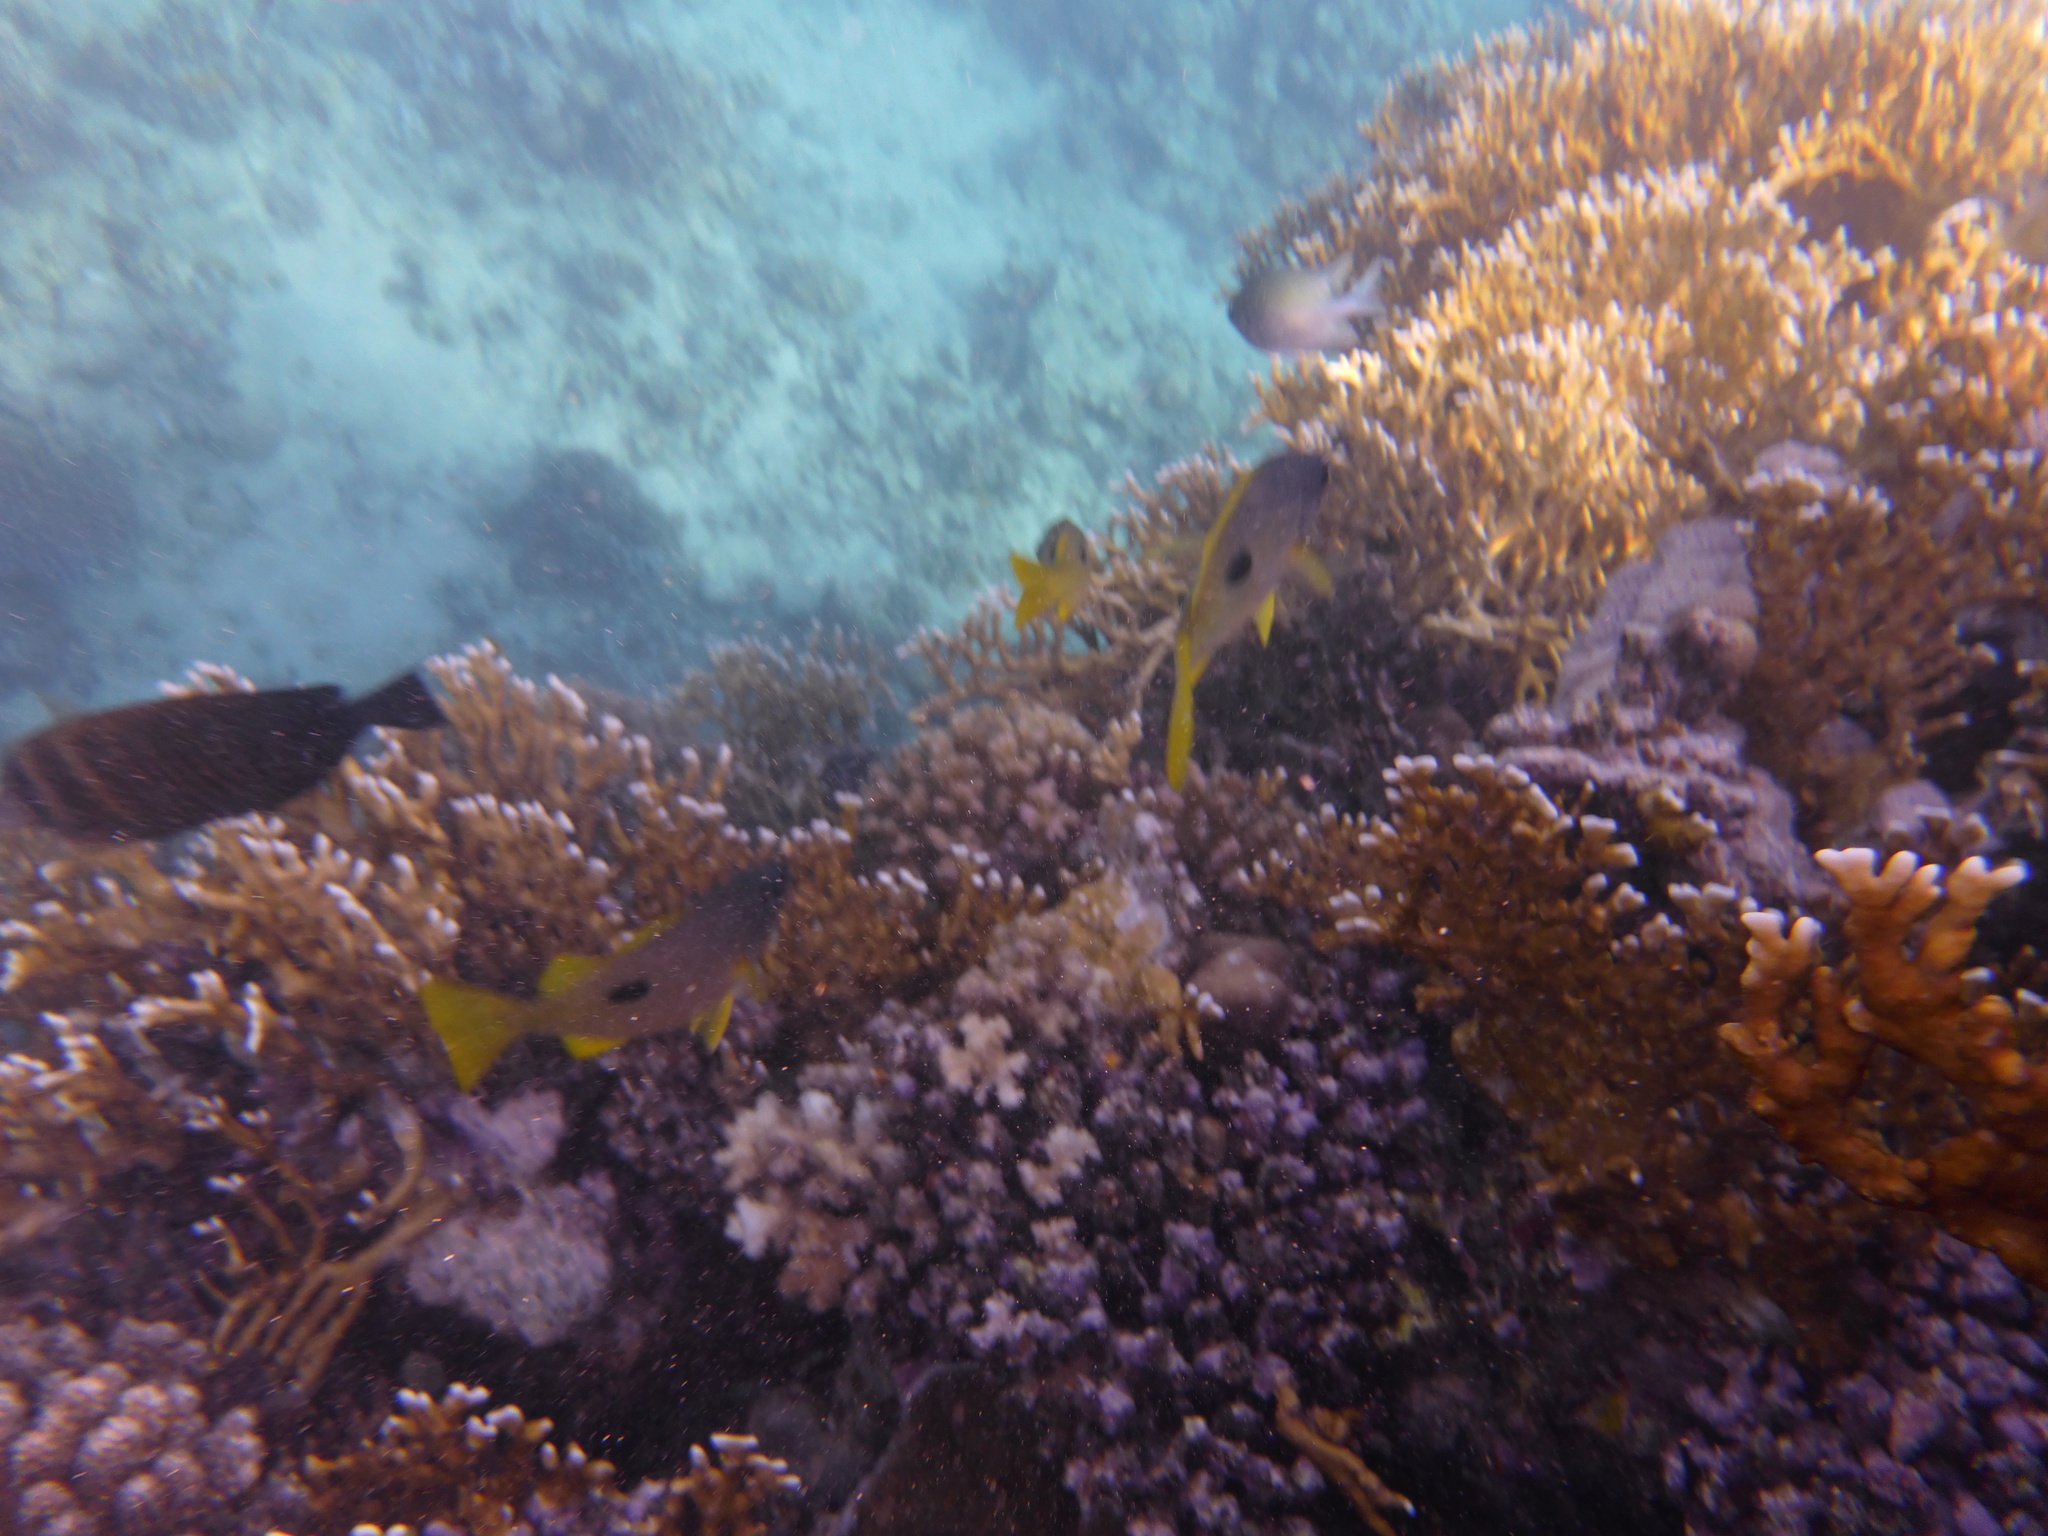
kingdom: Animalia
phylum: Chordata
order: Perciformes
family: Lutjanidae
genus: Lutjanus
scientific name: Lutjanus fulviflamma
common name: Blackspot snapper
